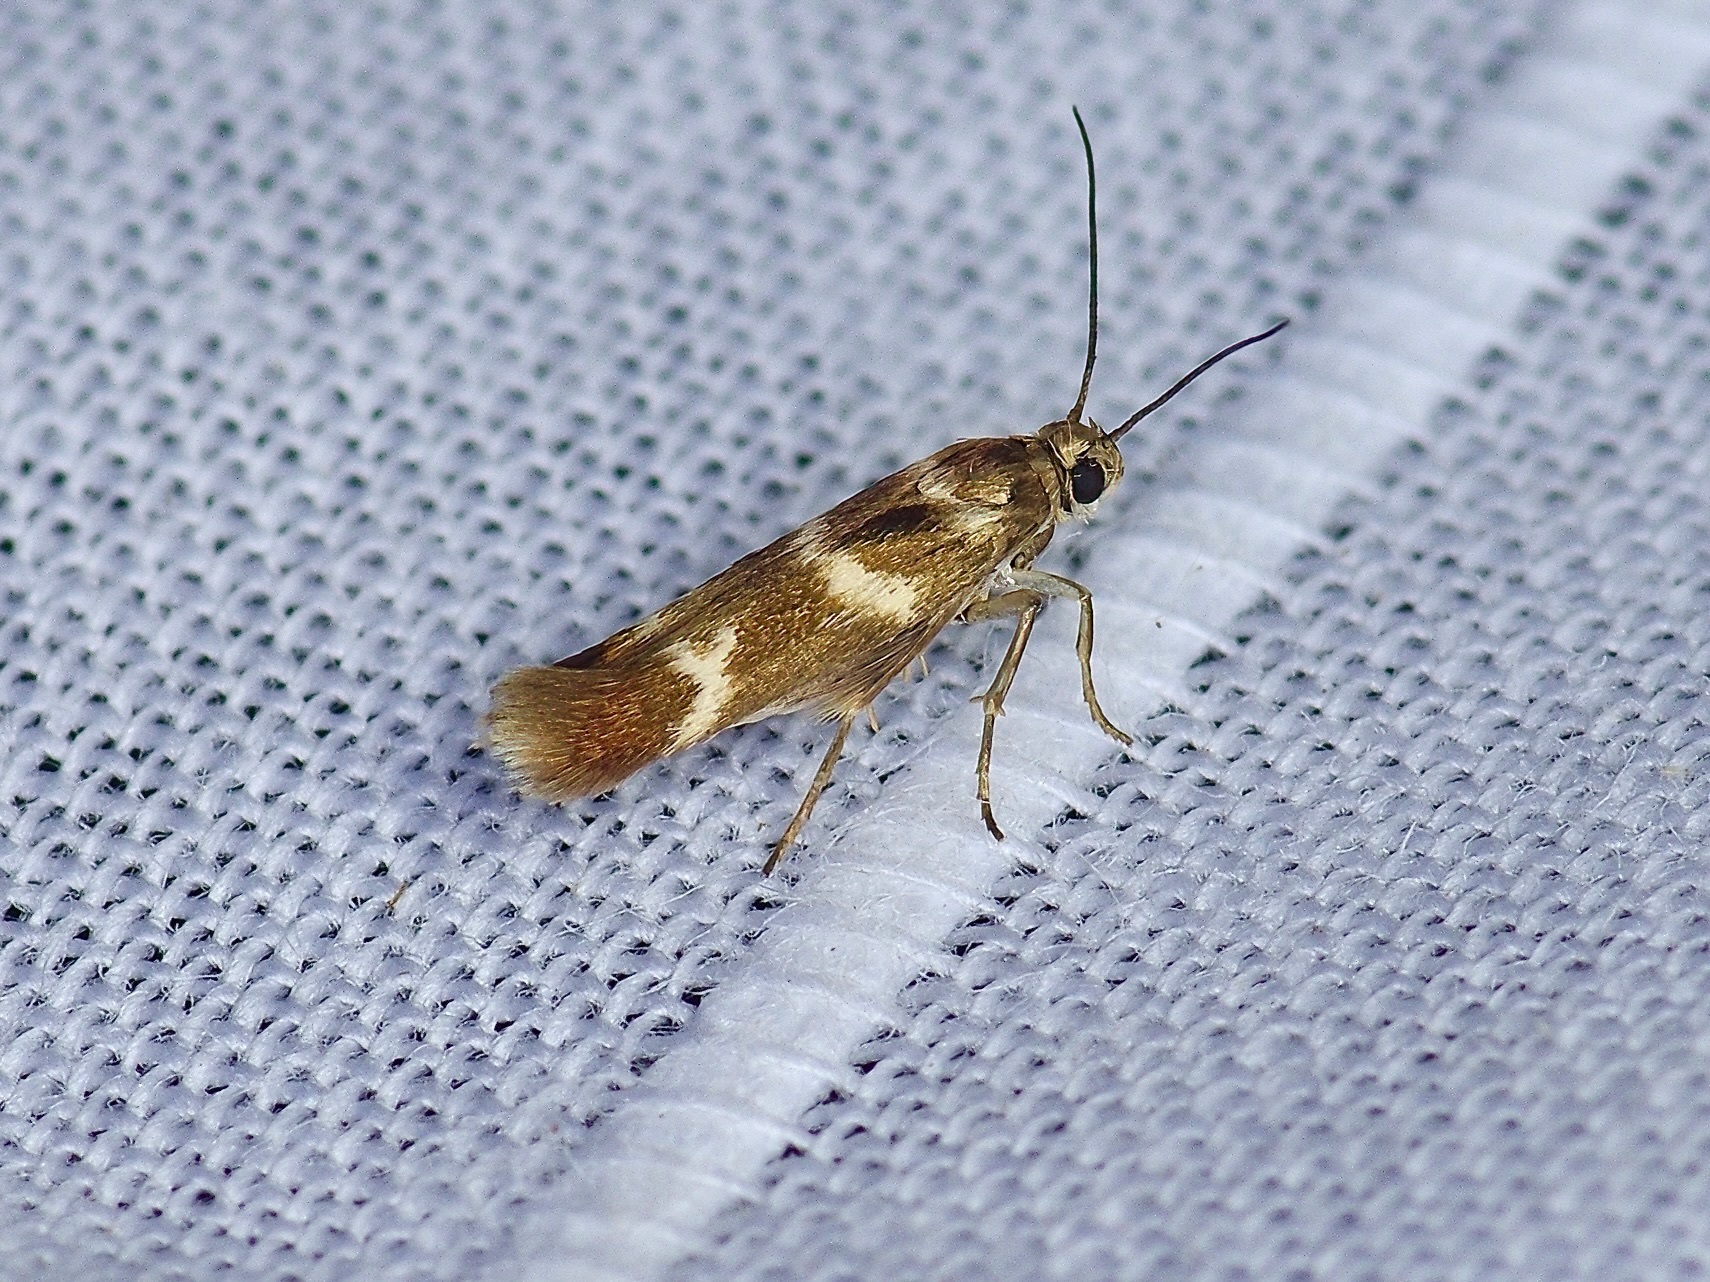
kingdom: Animalia
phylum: Arthropoda
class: Insecta
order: Lepidoptera
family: Scythrididae
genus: Scythris
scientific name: Scythris trivinctella
